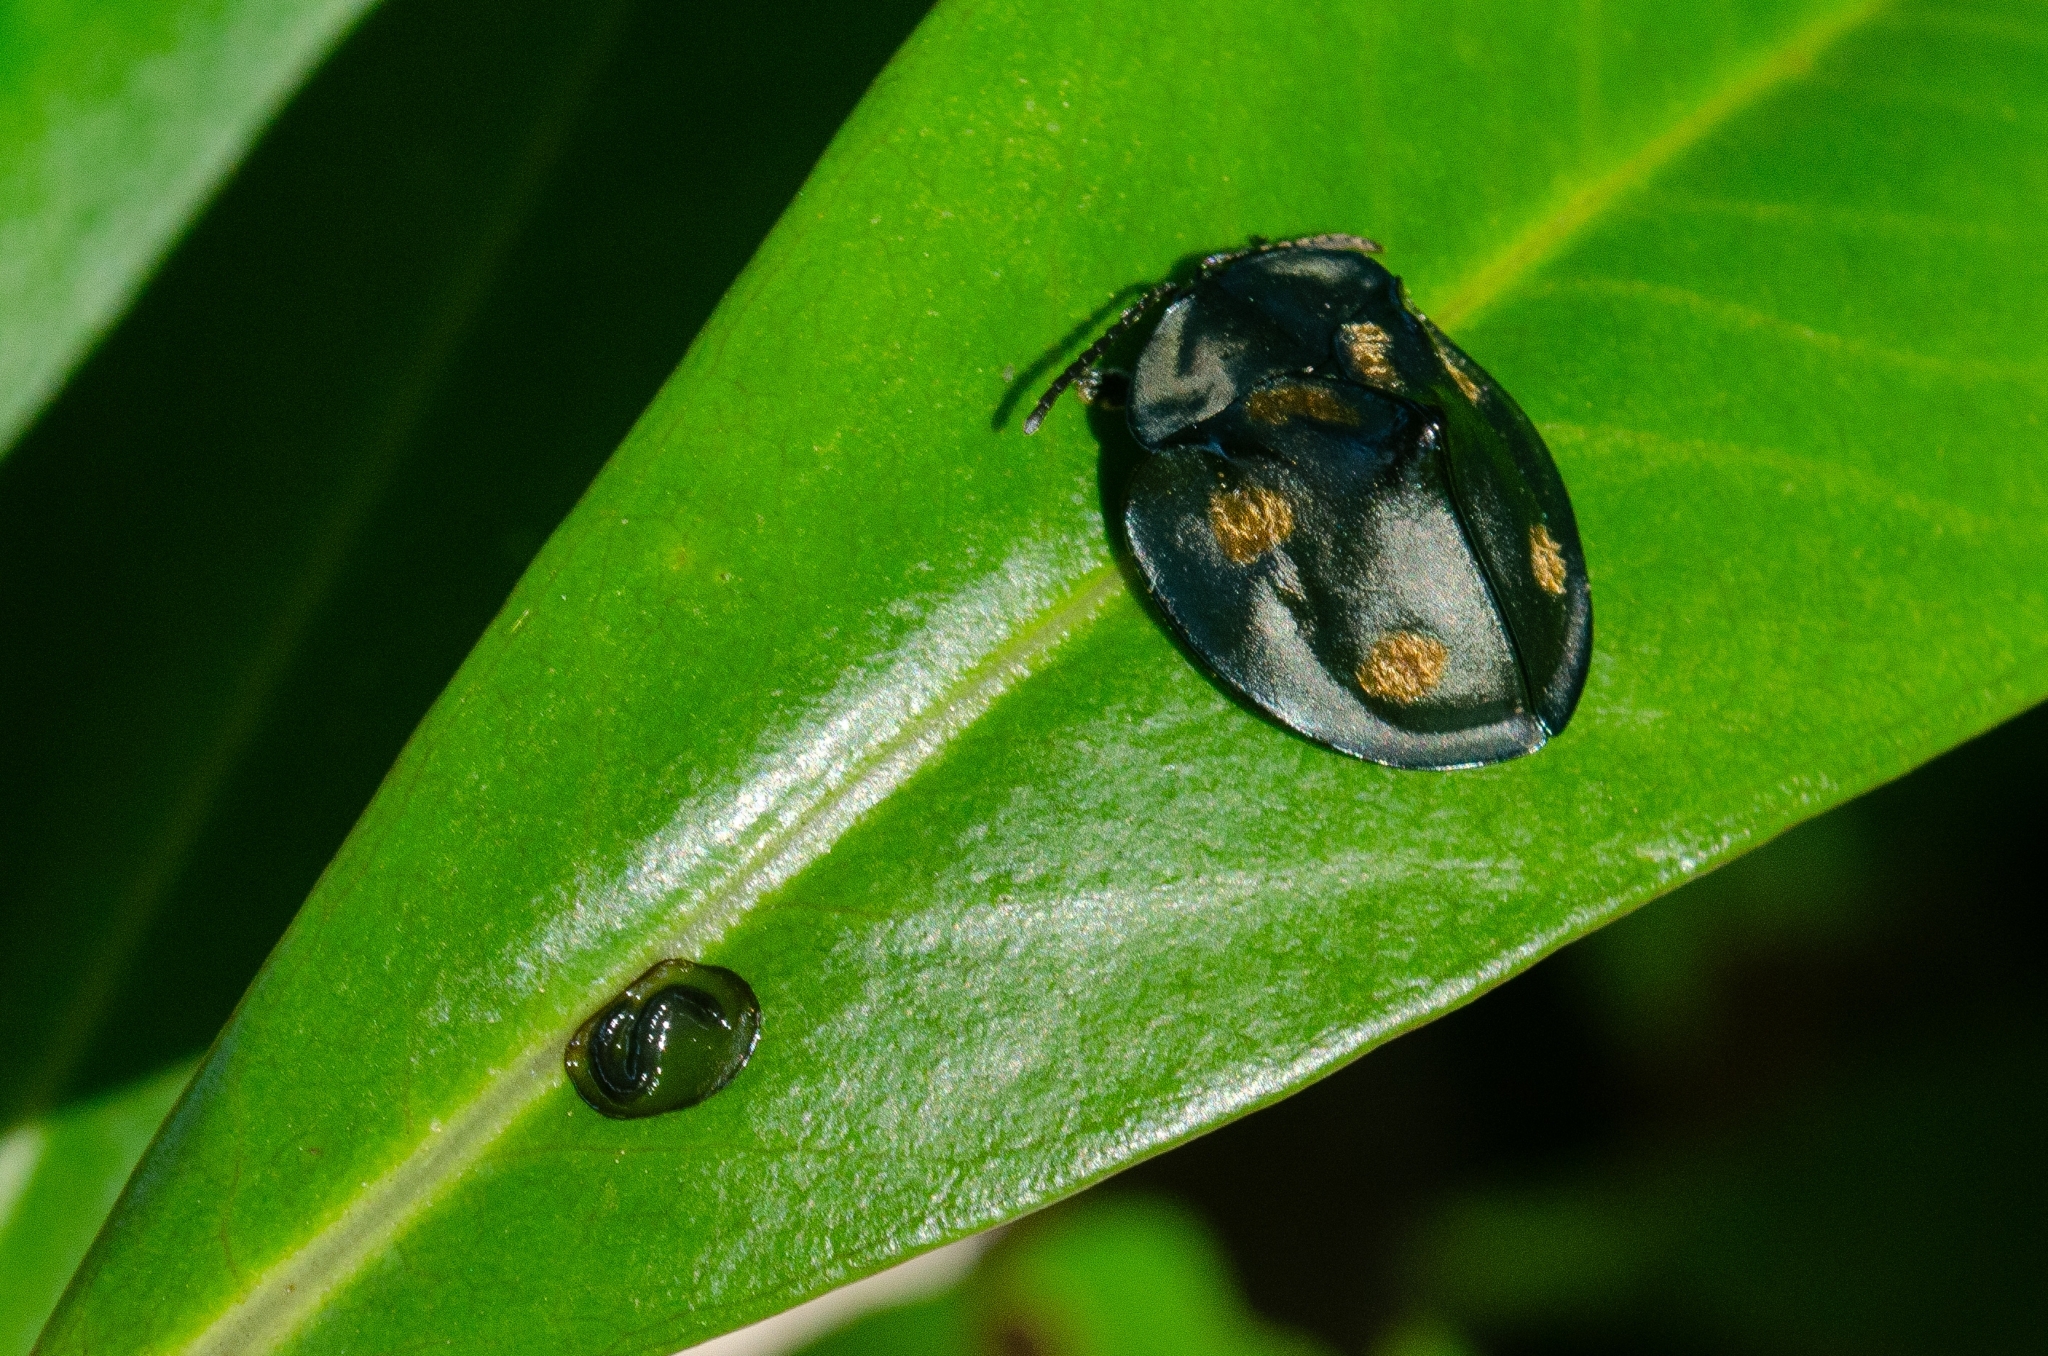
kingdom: Animalia
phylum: Arthropoda
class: Insecta
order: Coleoptera
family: Chrysomelidae
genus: Stolas
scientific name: Stolas chalybaea
